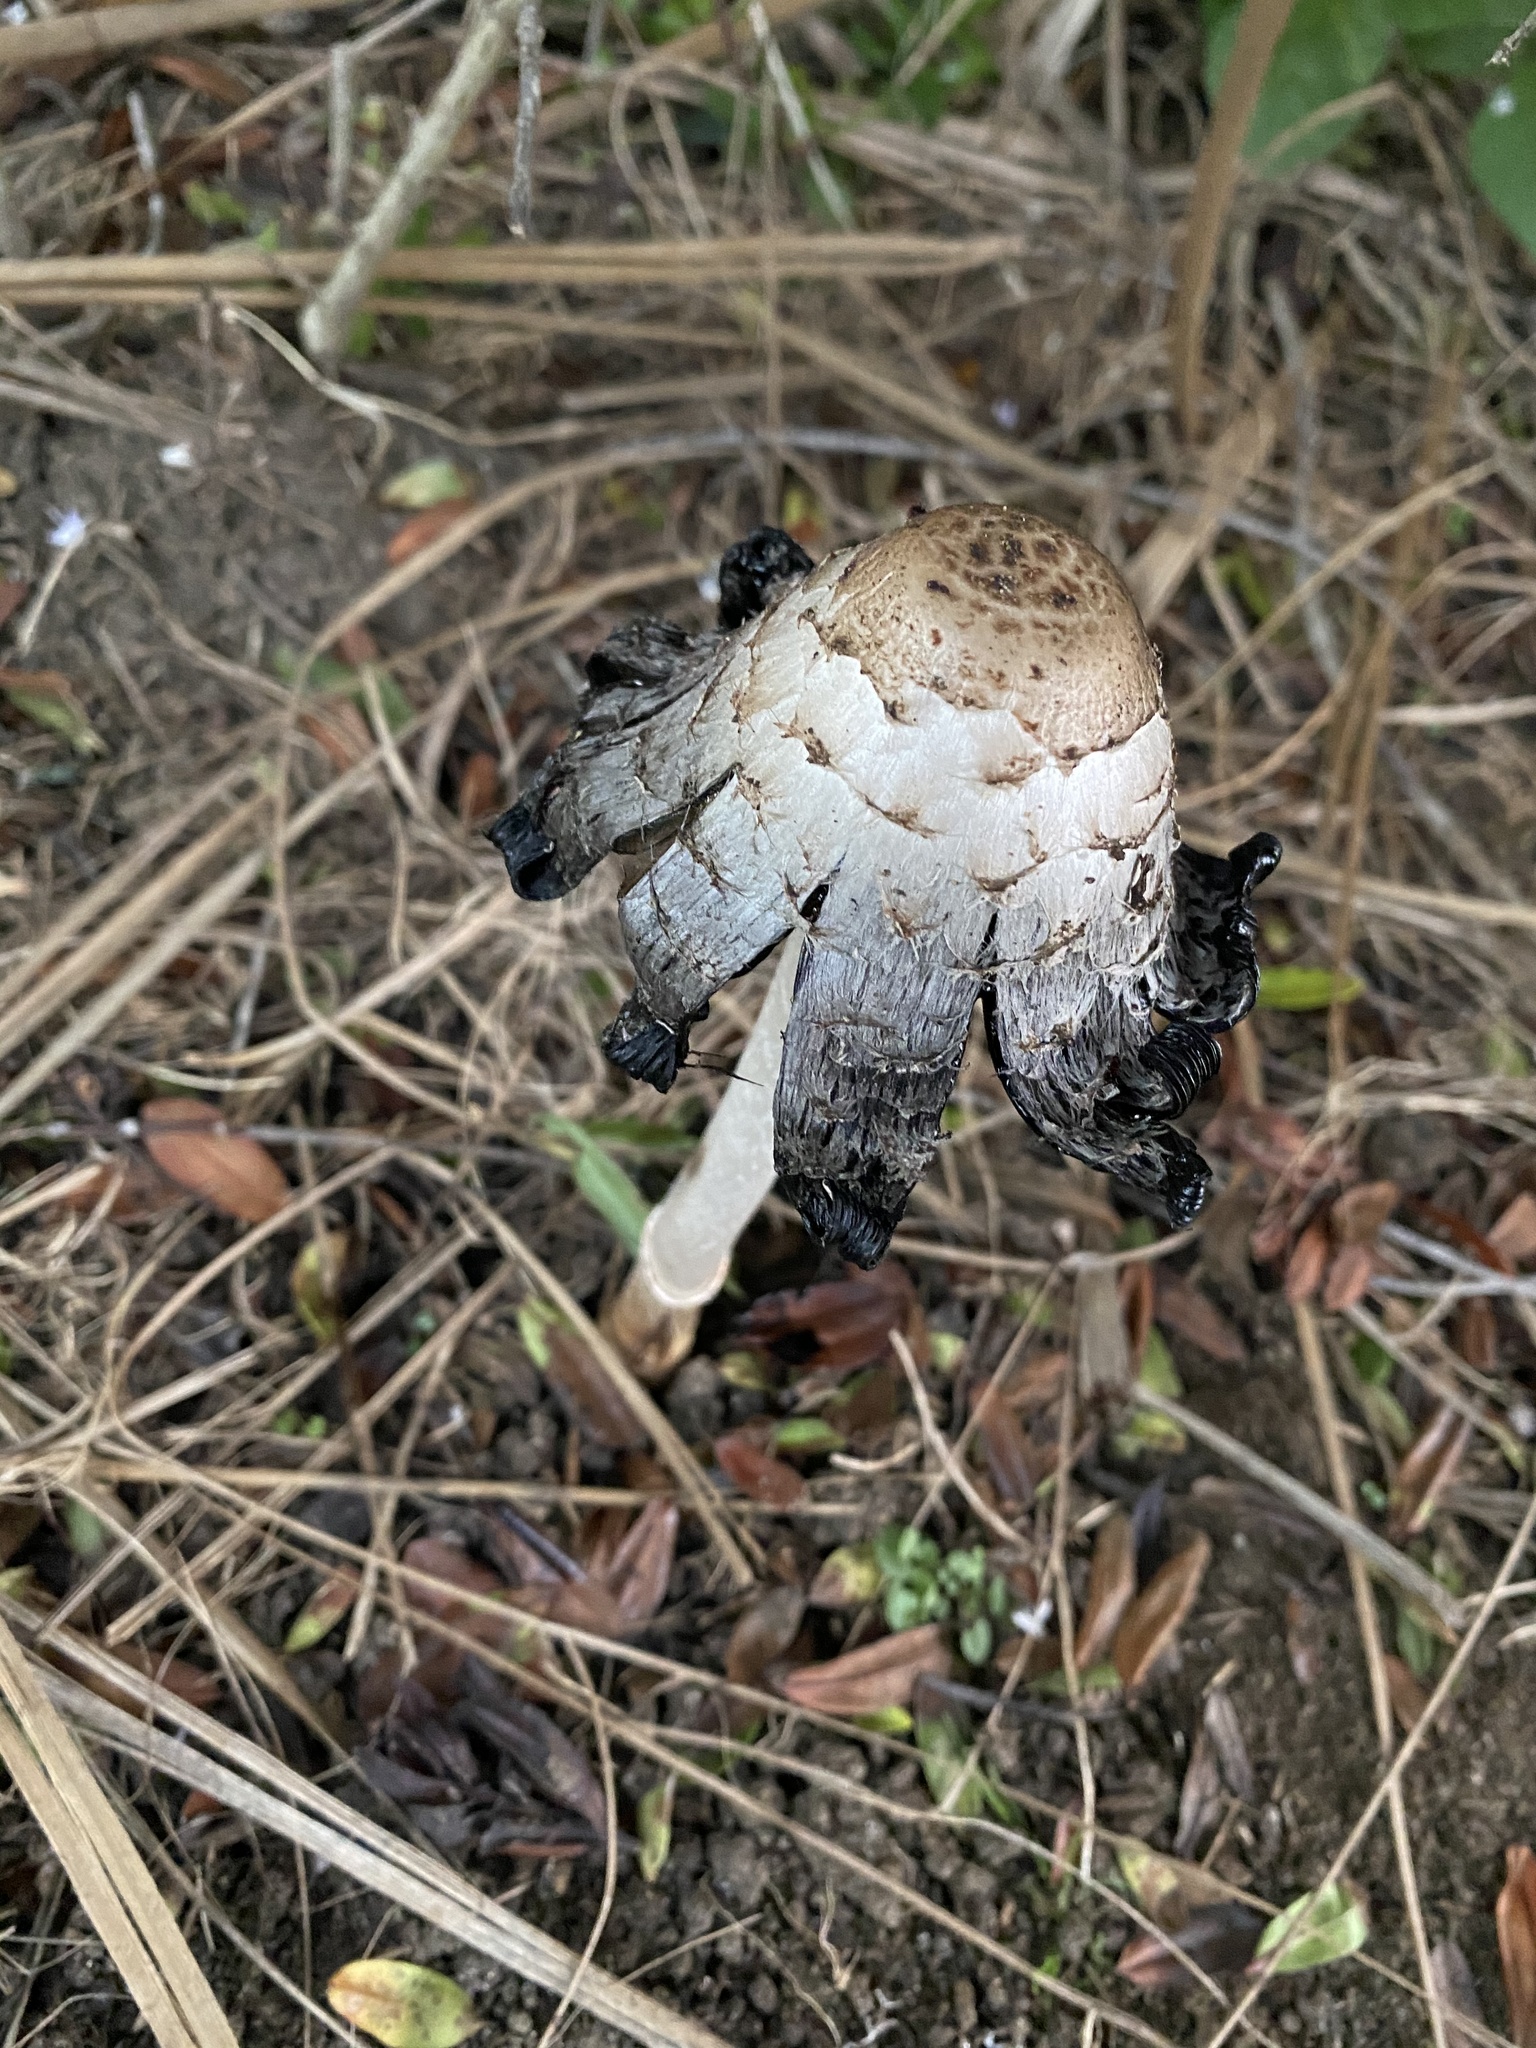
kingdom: Fungi
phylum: Basidiomycota
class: Agaricomycetes
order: Agaricales
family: Agaricaceae
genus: Coprinus
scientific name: Coprinus comatus
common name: Lawyer's wig
